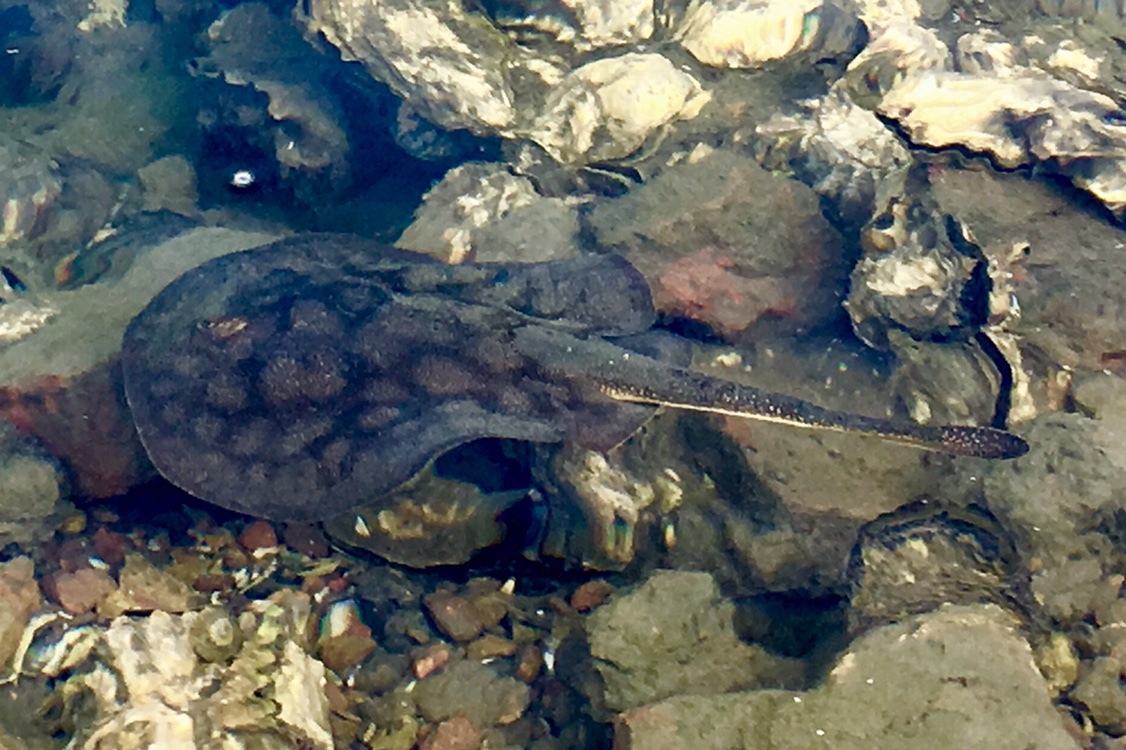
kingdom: Animalia
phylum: Chordata
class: Elasmobranchii
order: Myliobatiformes
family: Urolophidae
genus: Urolophus
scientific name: Urolophus halleri
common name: Round stingray
